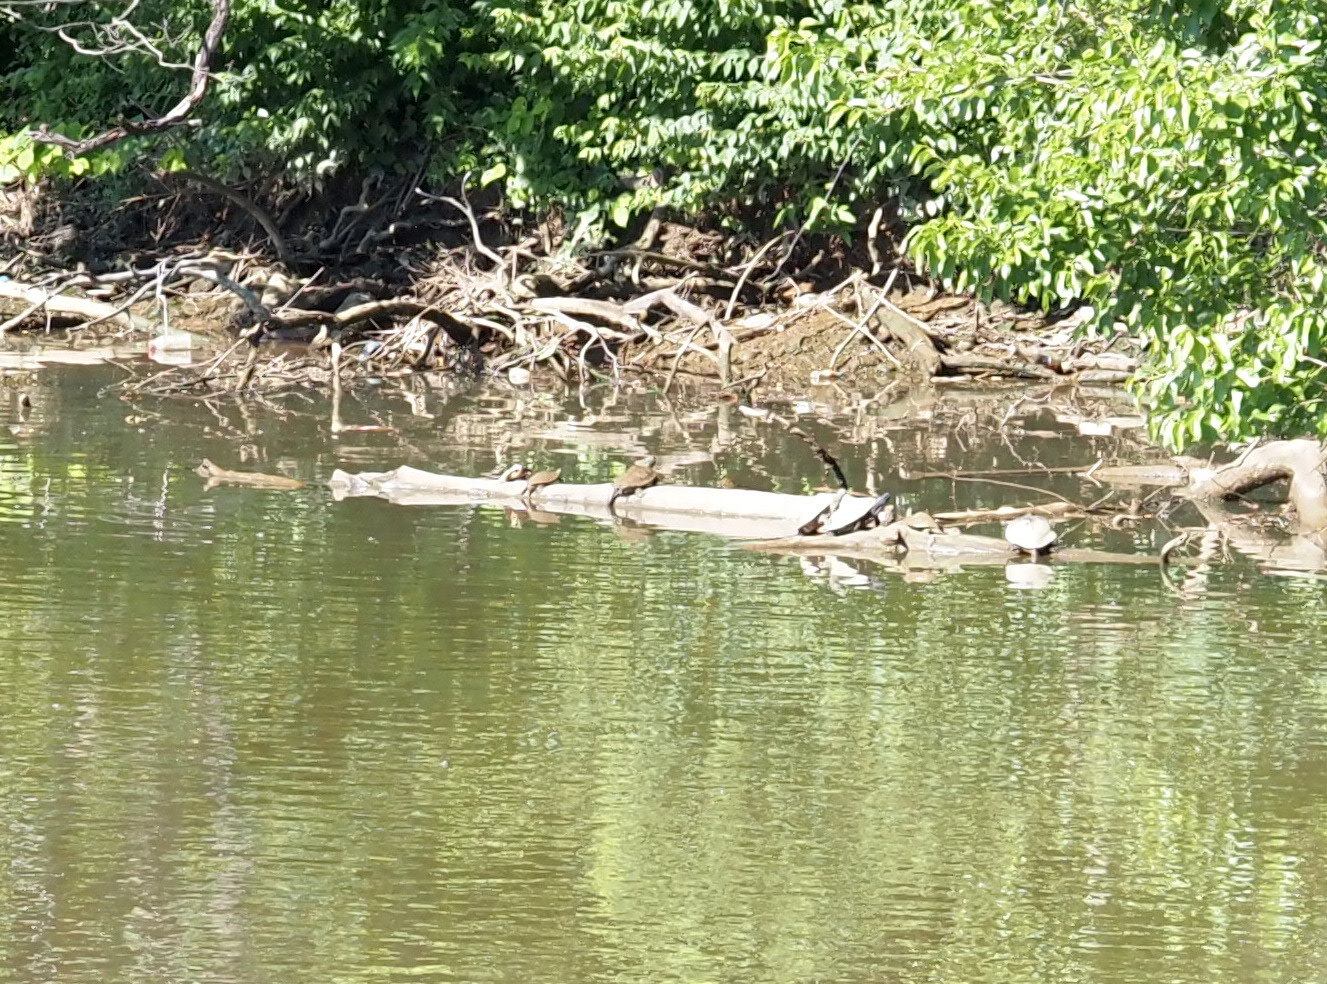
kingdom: Animalia
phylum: Chordata
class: Testudines
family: Emydidae
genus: Graptemys
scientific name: Graptemys pseudogeographica
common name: False map turtle
